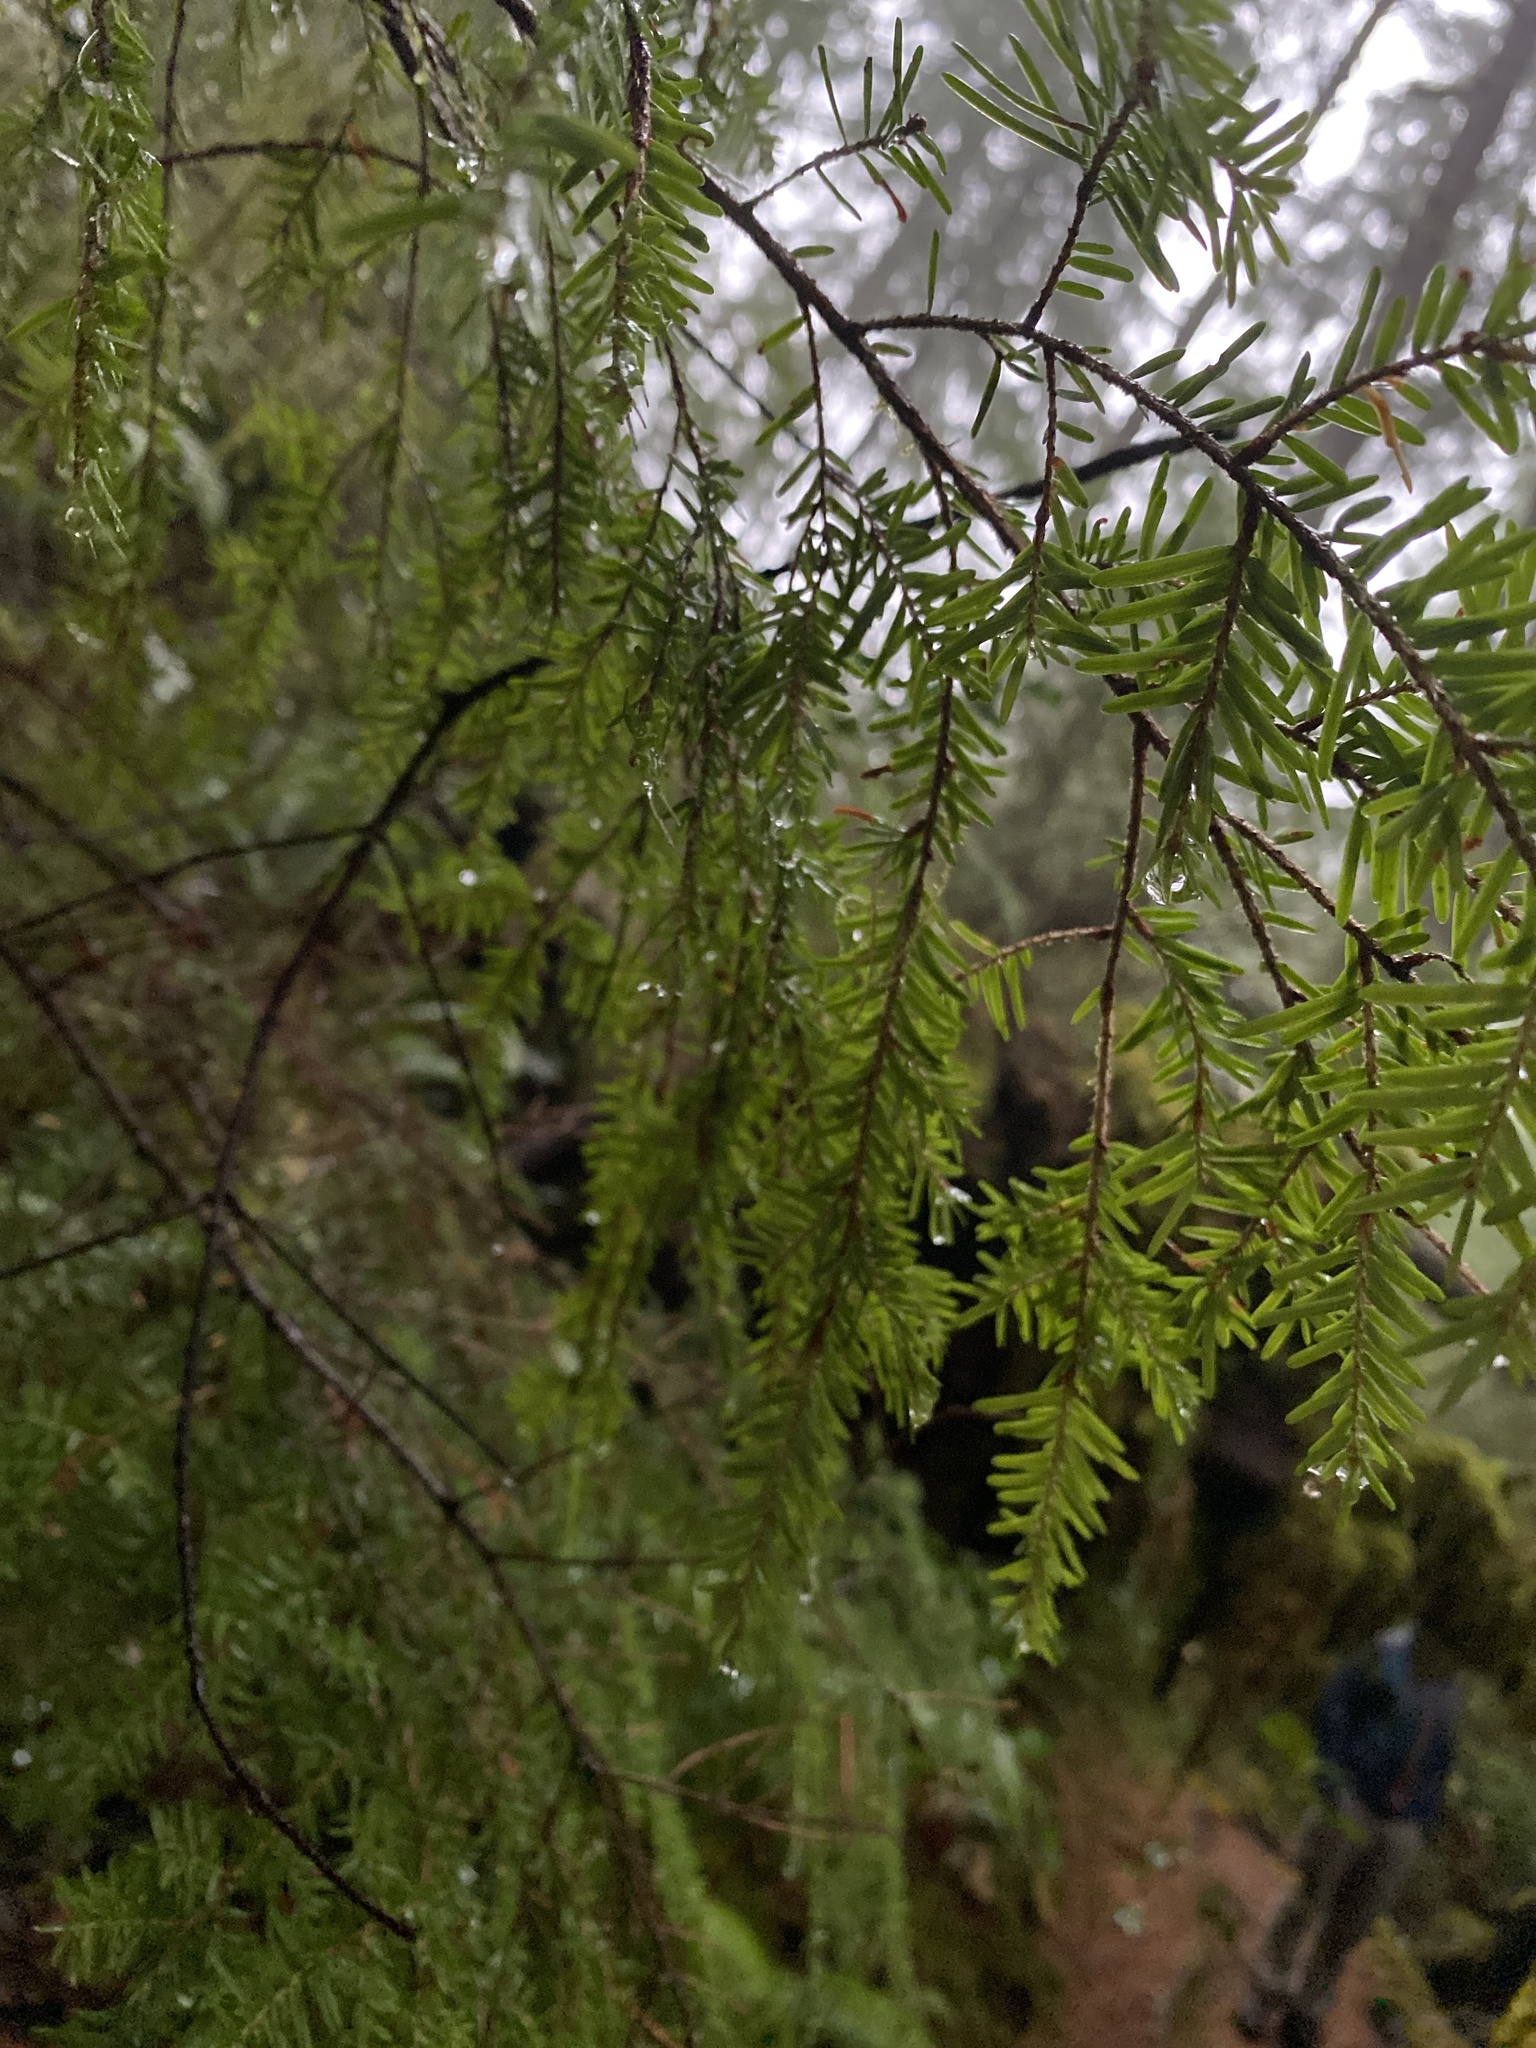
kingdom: Plantae
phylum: Tracheophyta
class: Pinopsida
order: Pinales
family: Pinaceae
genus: Tsuga
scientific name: Tsuga heterophylla
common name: Western hemlock
